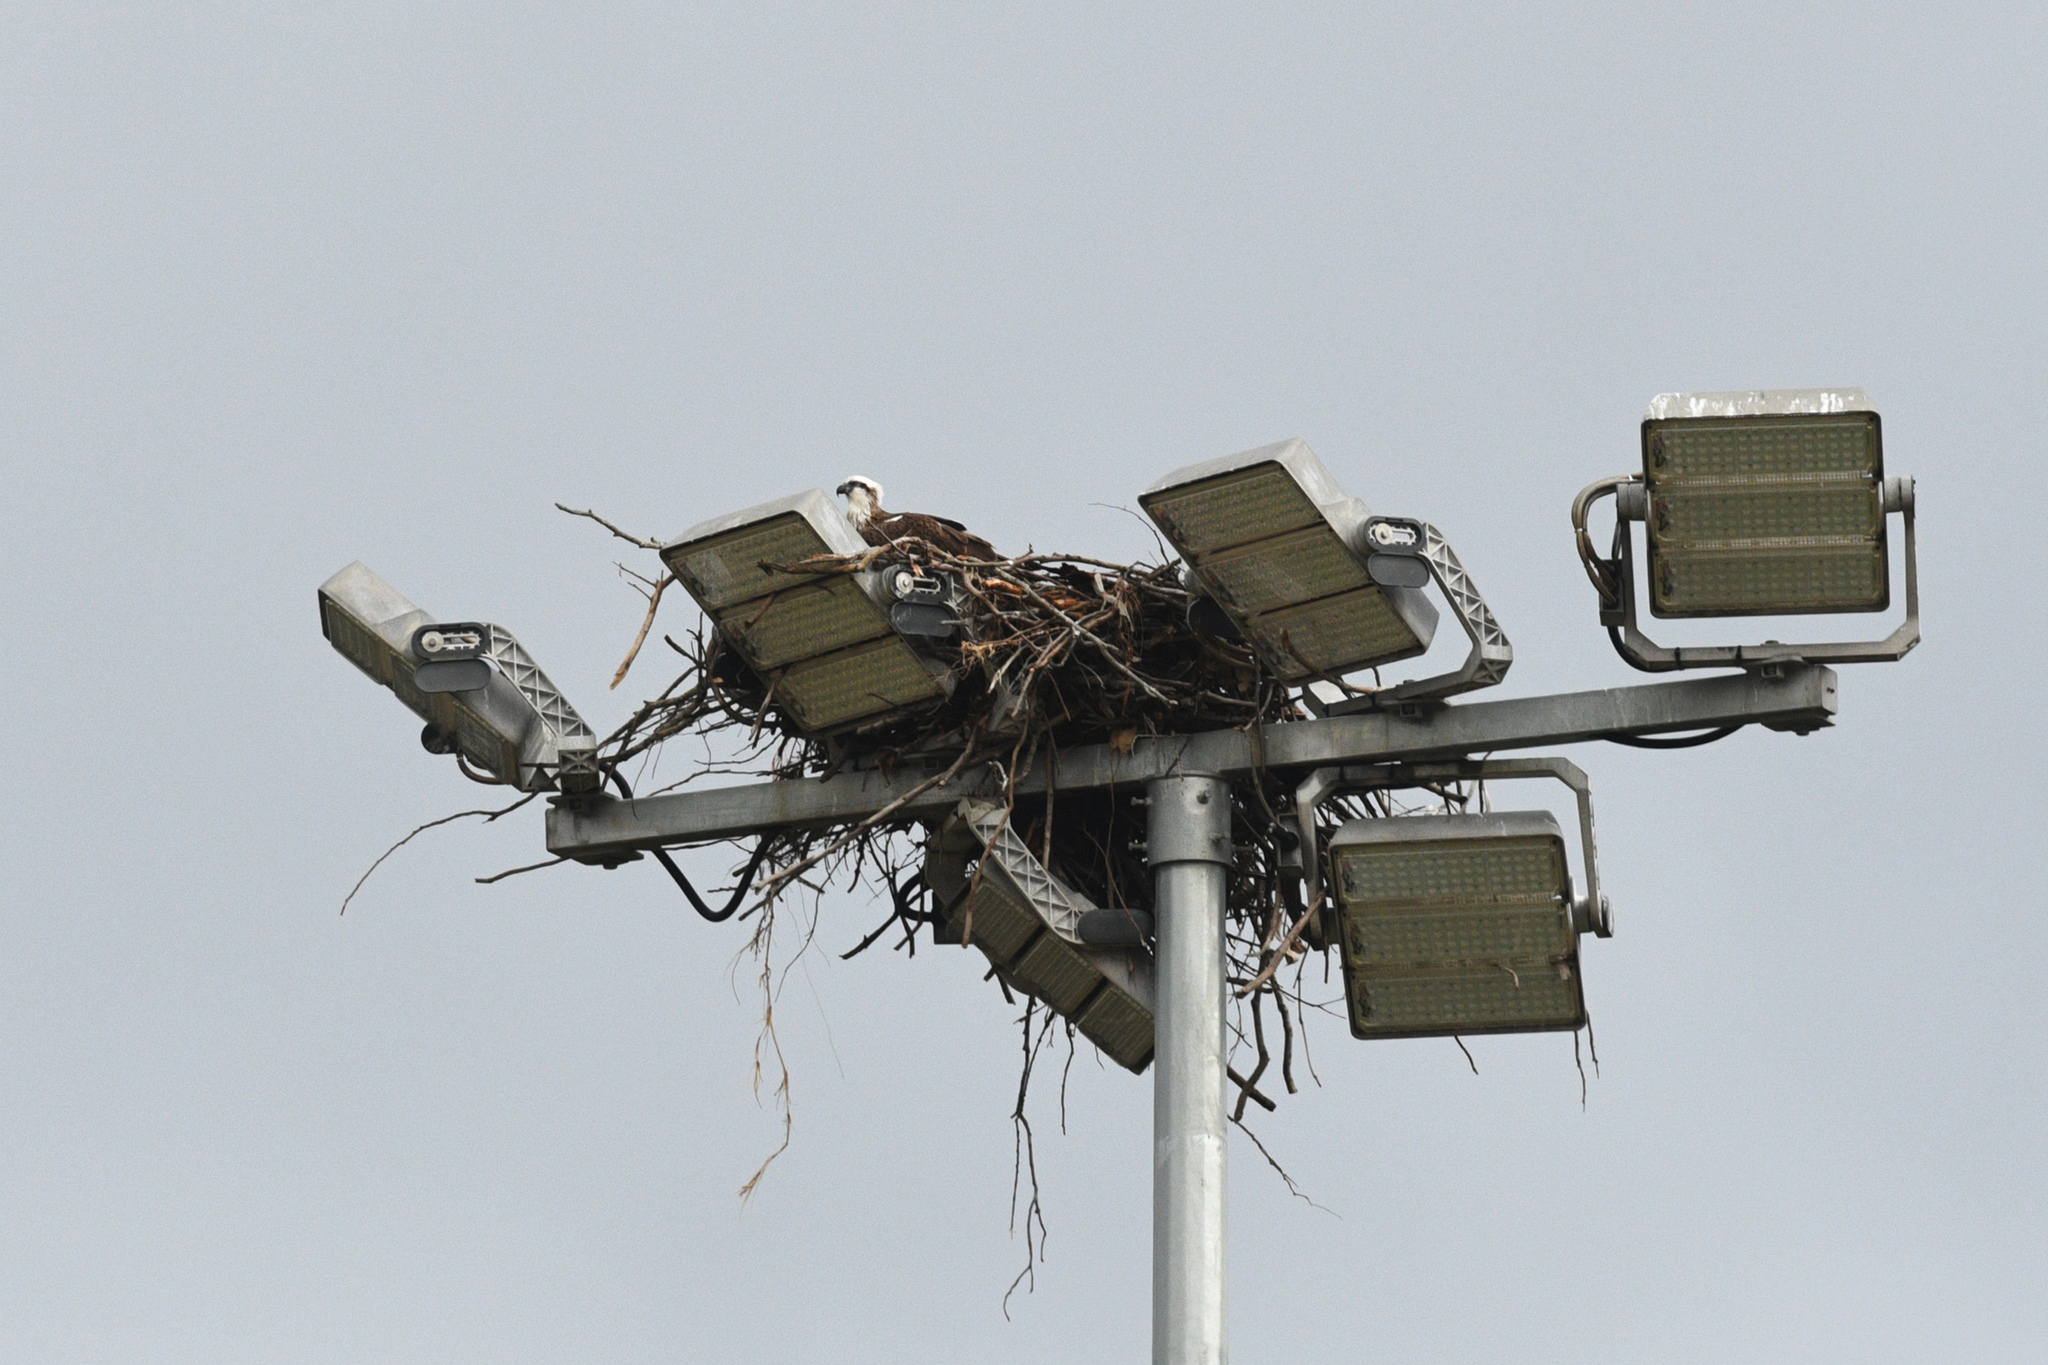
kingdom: Animalia
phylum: Chordata
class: Aves
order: Accipitriformes
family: Pandionidae
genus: Pandion
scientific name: Pandion cristatus
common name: Eastern osprey
